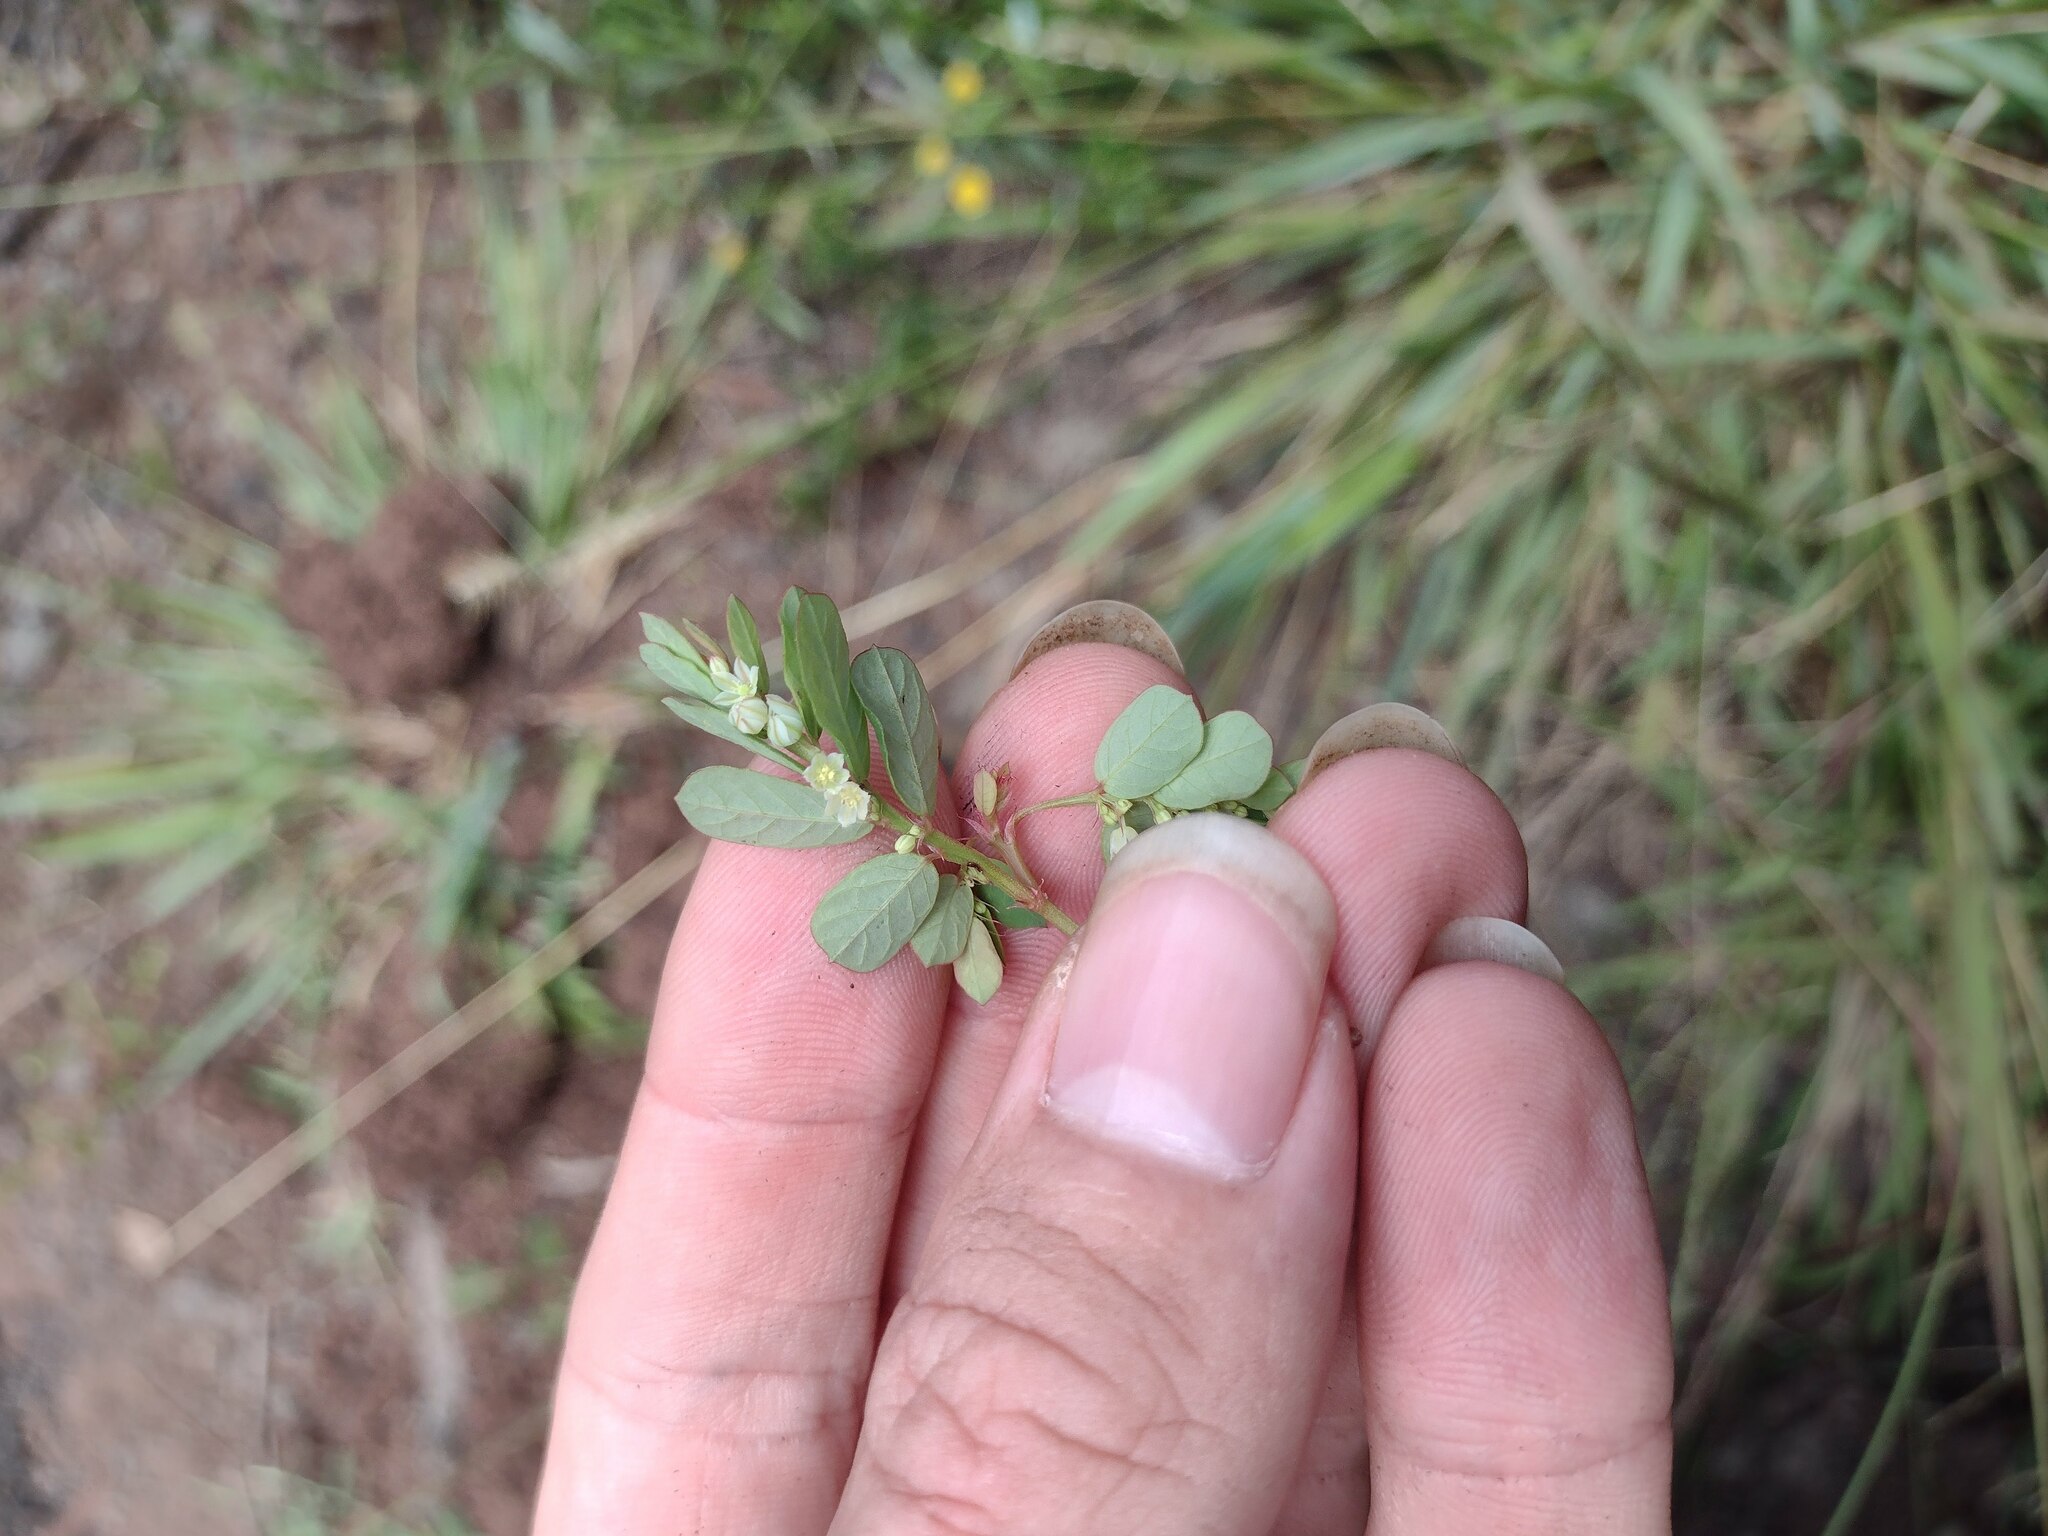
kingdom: Plantae
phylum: Tracheophyta
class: Magnoliopsida
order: Malpighiales
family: Phyllanthaceae
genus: Phyllanthus
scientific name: Phyllanthus leucanthus
